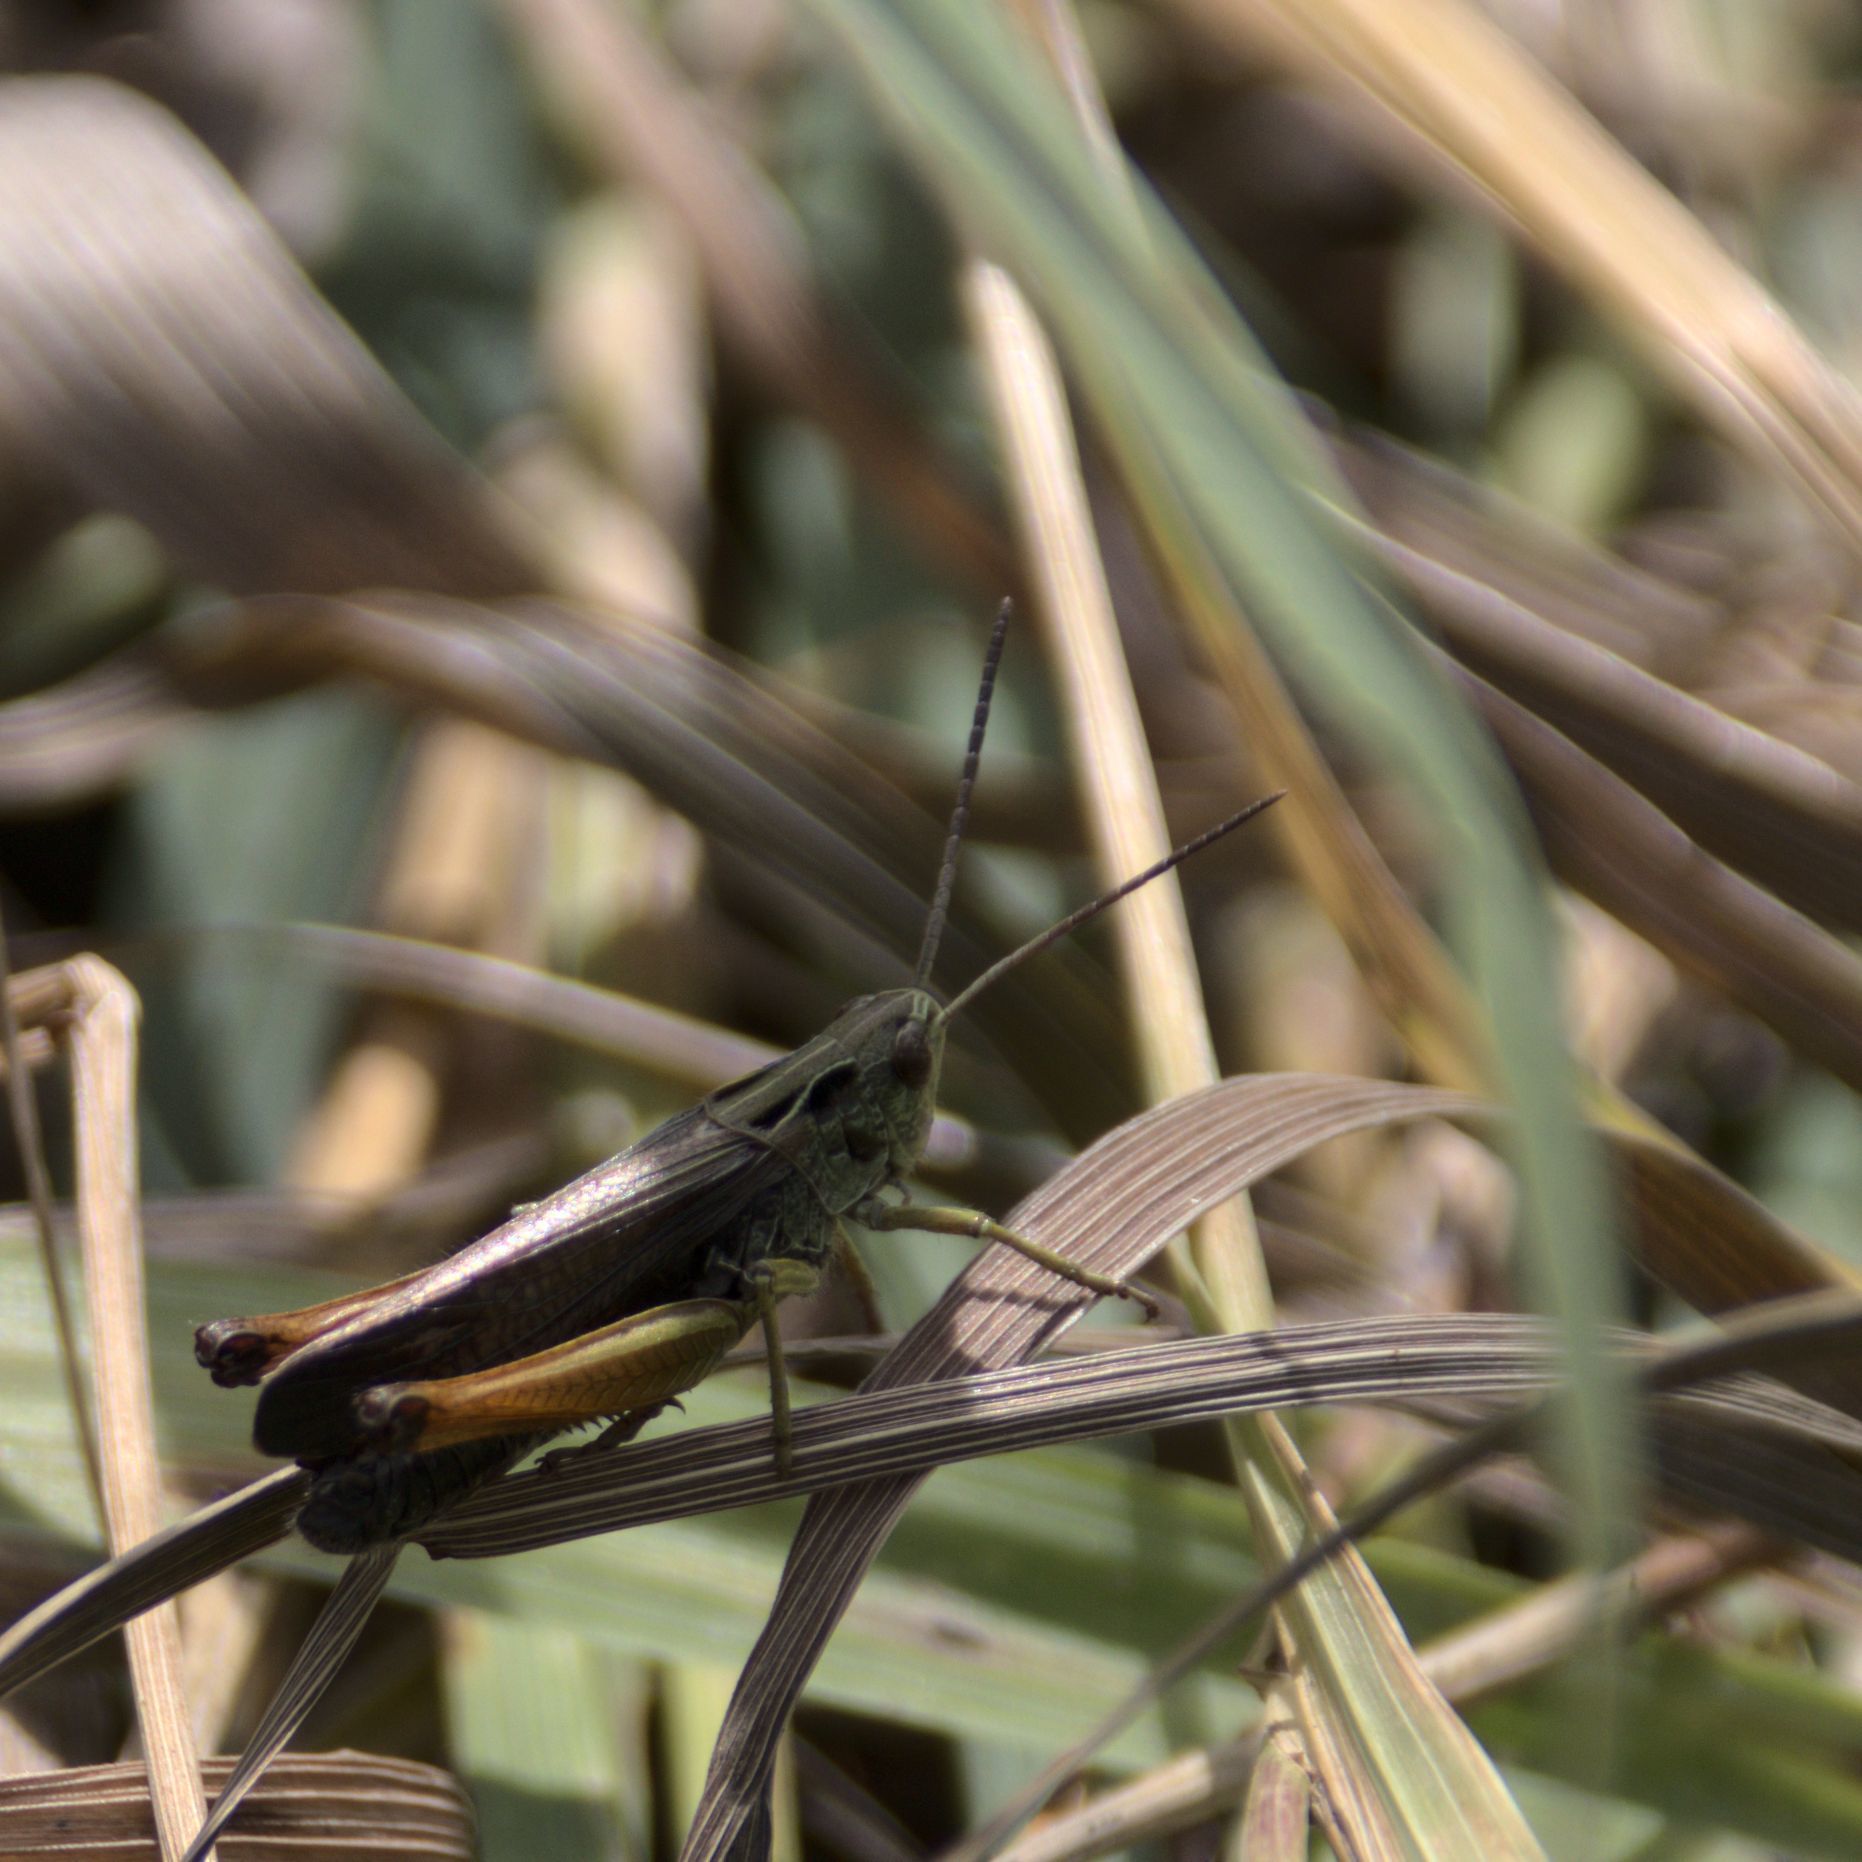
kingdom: Animalia
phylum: Arthropoda
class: Insecta
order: Orthoptera
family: Acrididae
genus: Omocestus
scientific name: Omocestus viridulus
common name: Common green grasshopper
